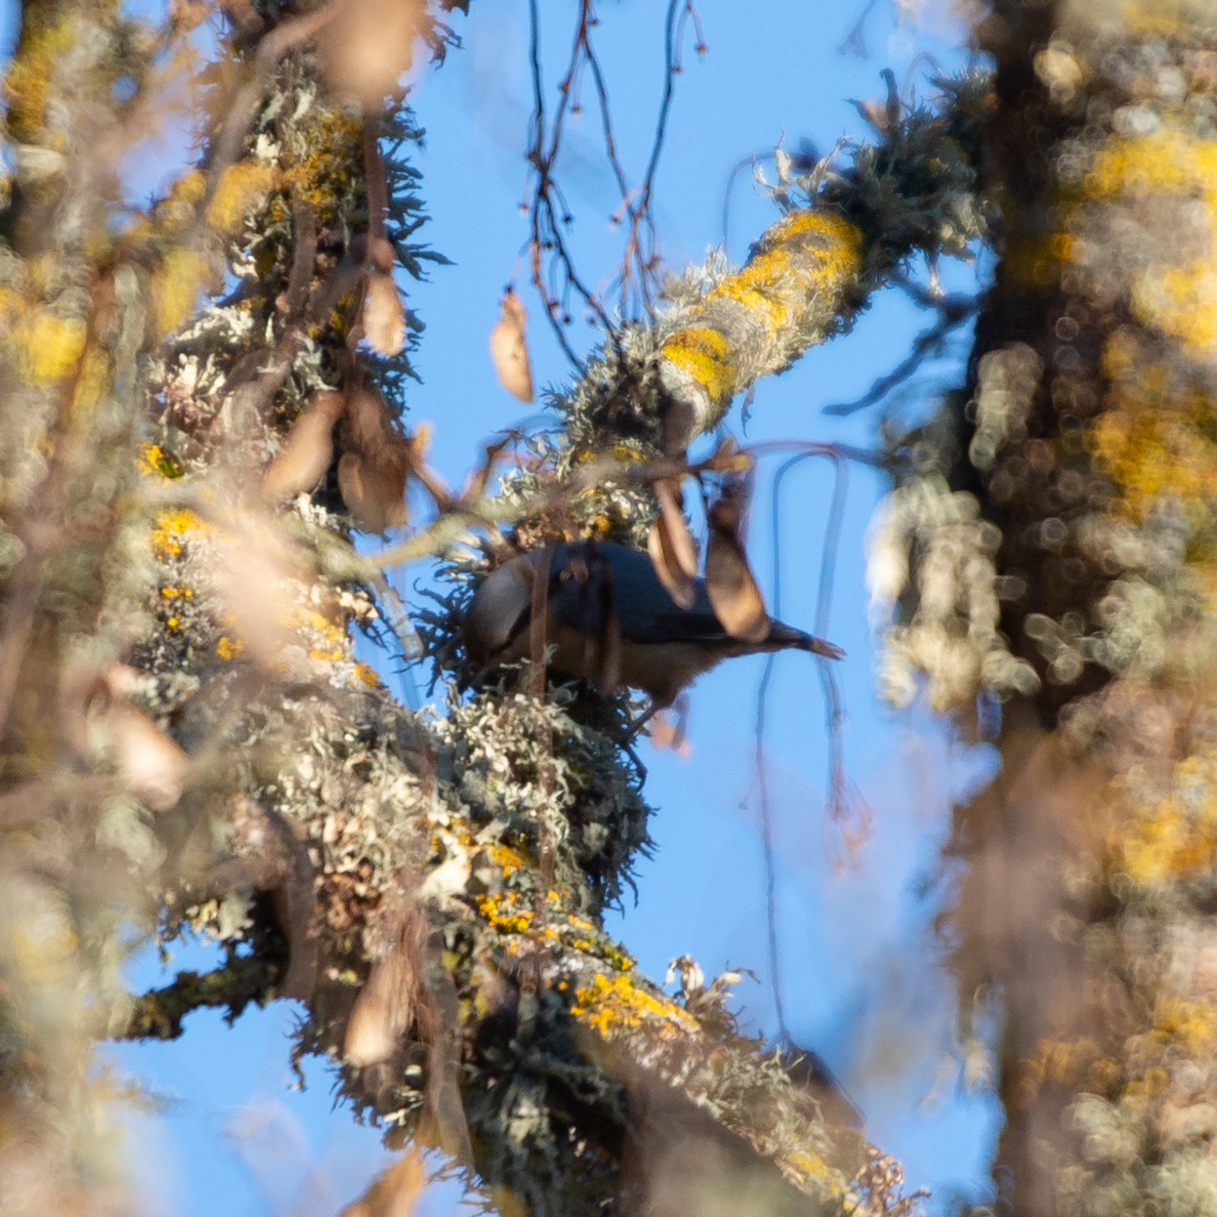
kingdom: Animalia
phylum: Chordata
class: Aves
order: Passeriformes
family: Sittidae
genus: Sitta
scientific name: Sitta europaea
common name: Eurasian nuthatch
